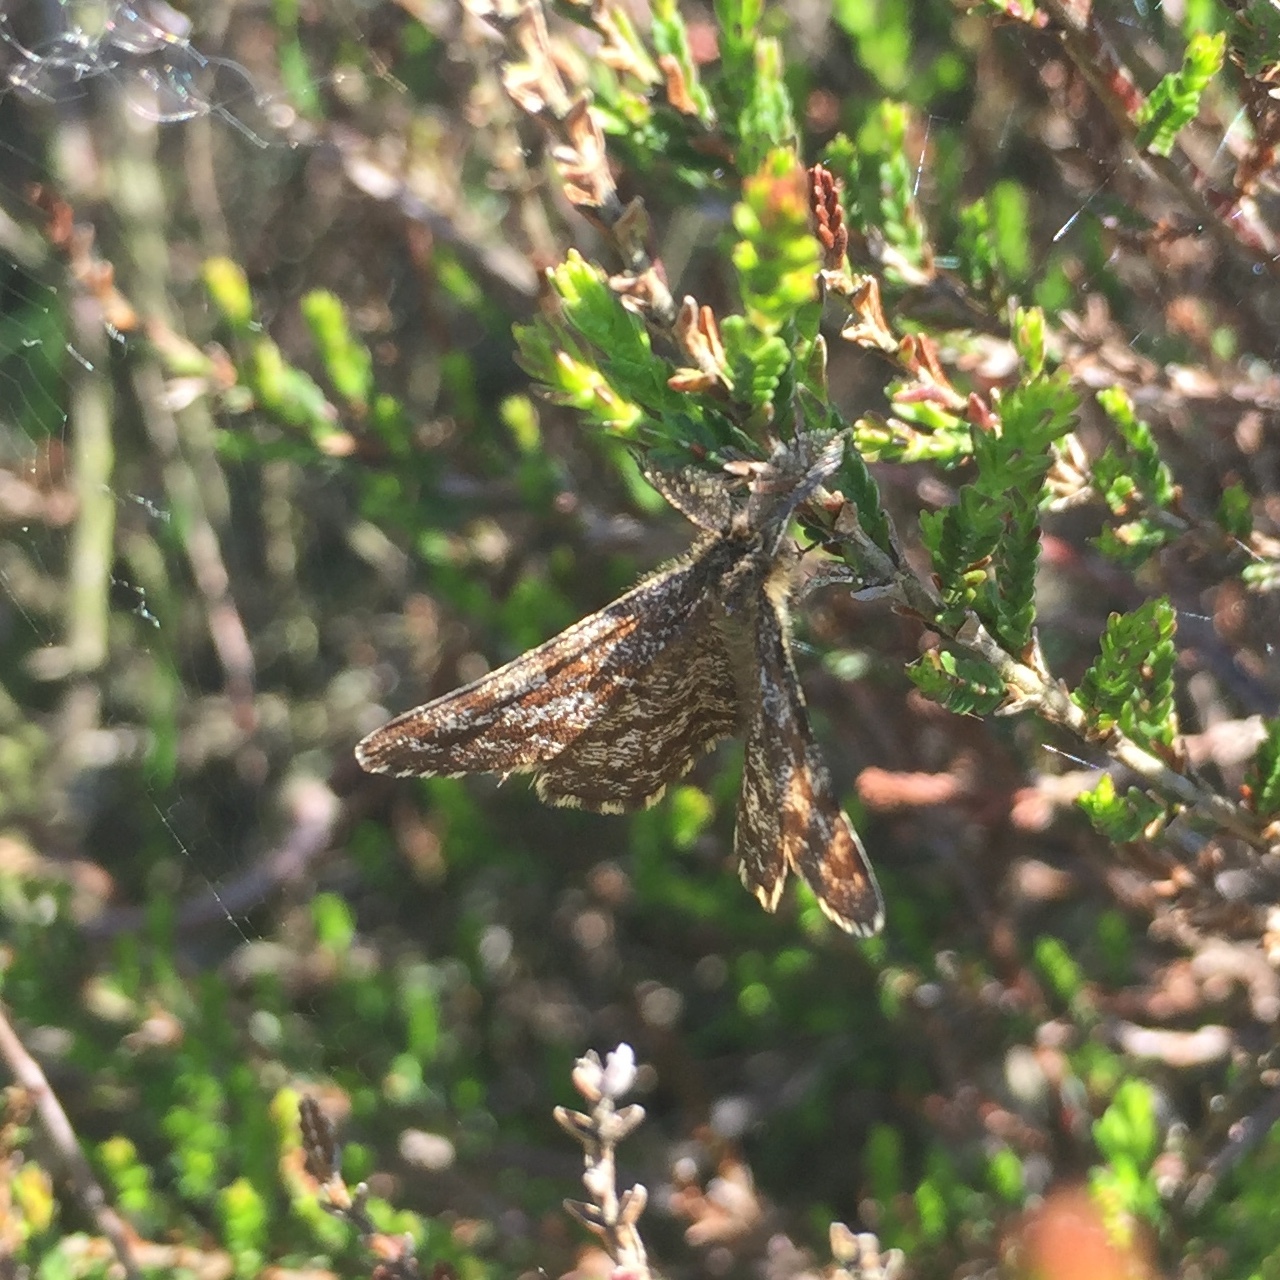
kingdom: Animalia
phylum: Arthropoda
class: Insecta
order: Lepidoptera
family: Geometridae
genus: Ematurga
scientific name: Ematurga atomaria
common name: Common heath
